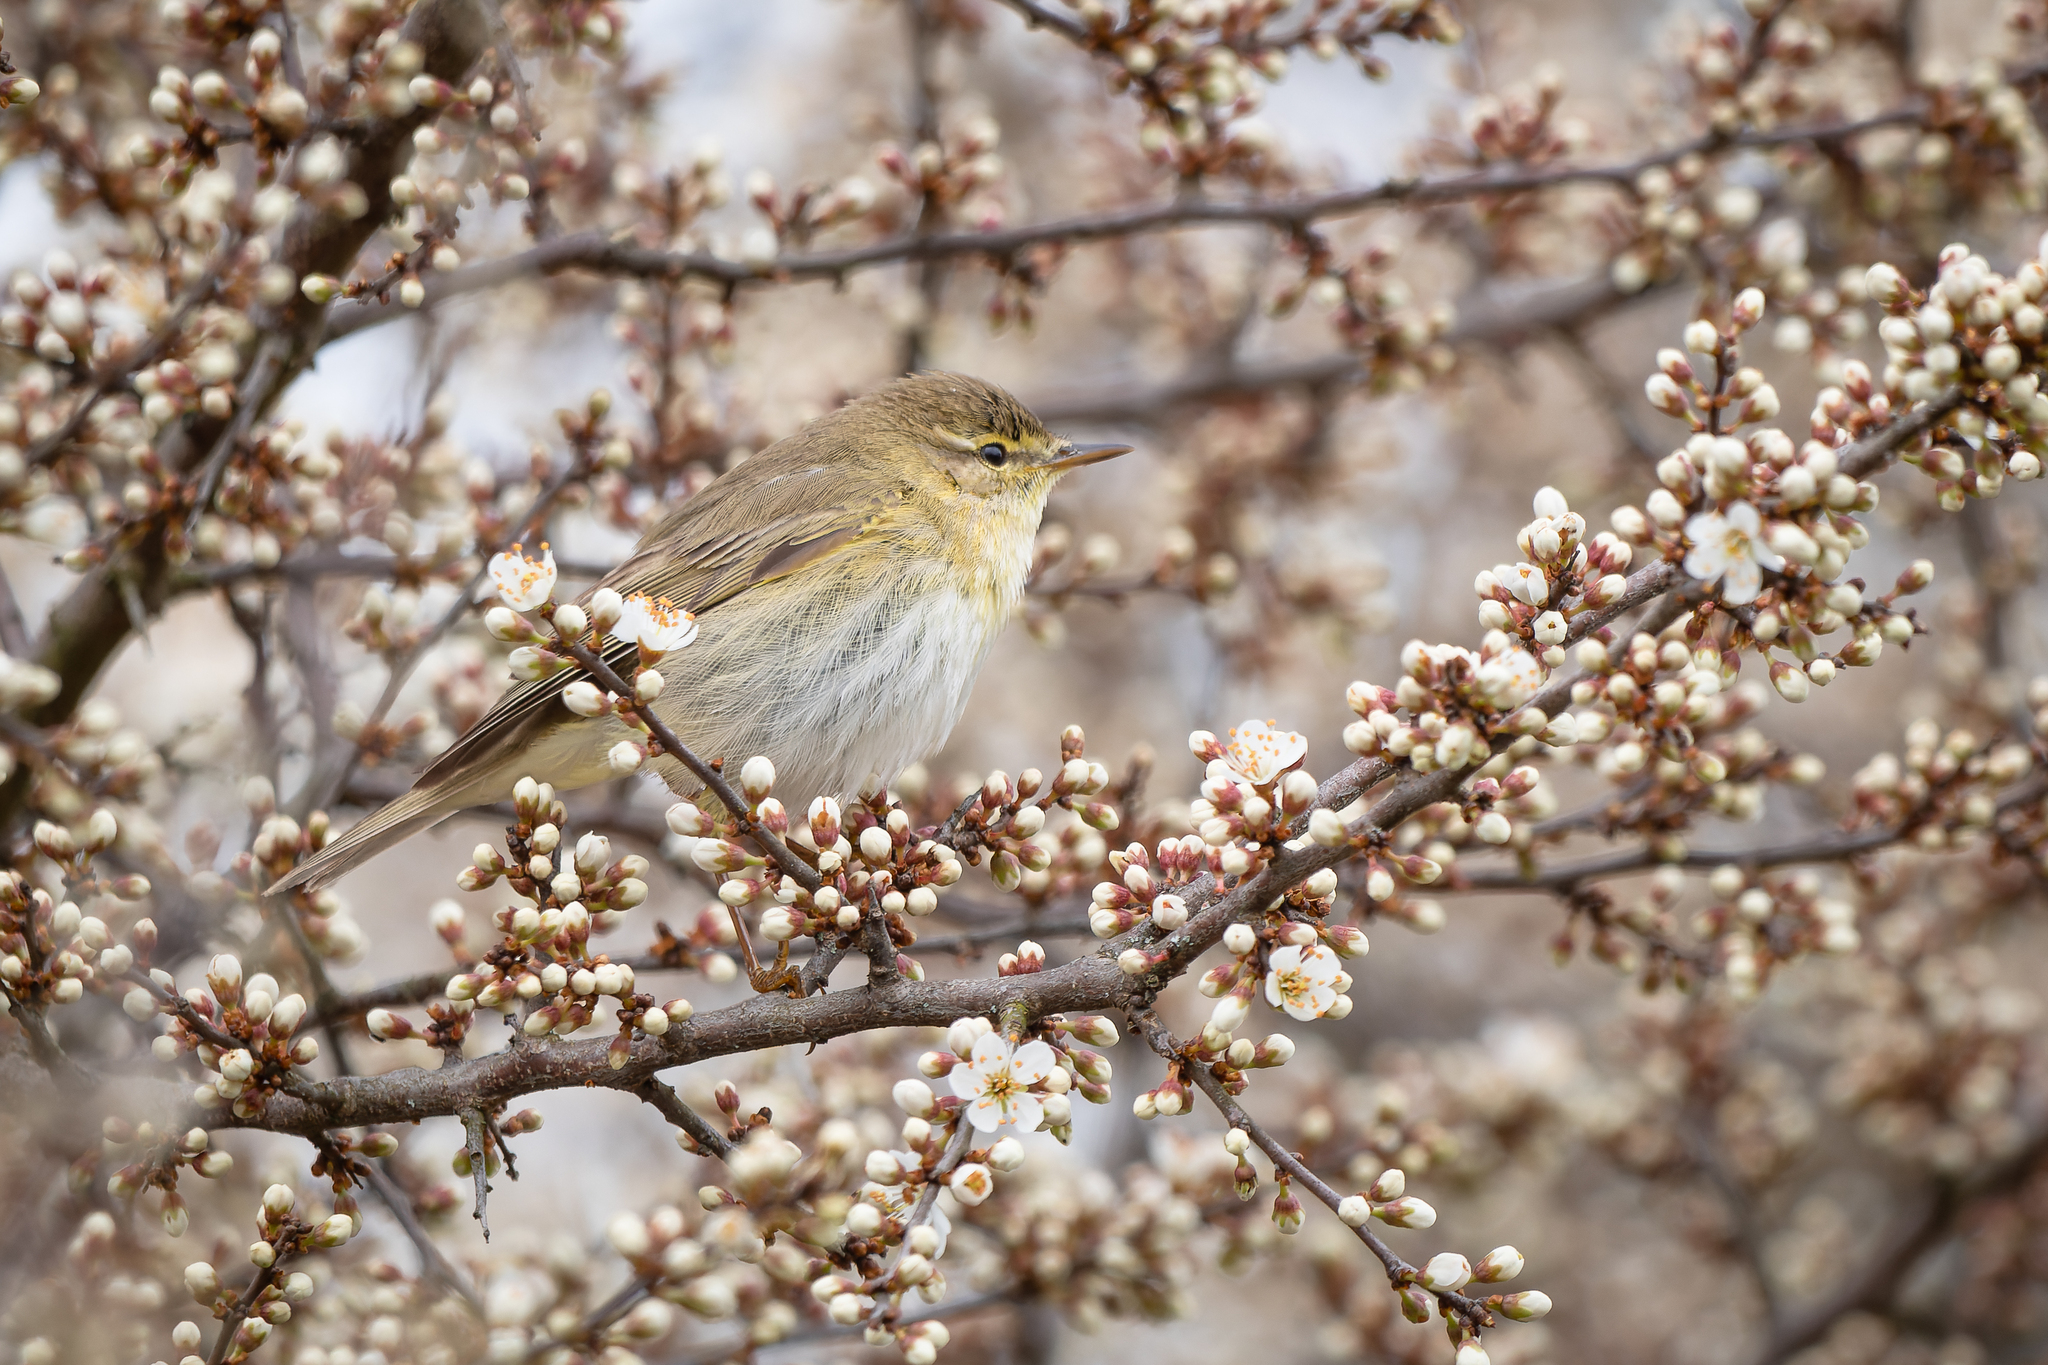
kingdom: Animalia
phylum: Chordata
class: Aves
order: Passeriformes
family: Phylloscopidae
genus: Phylloscopus
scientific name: Phylloscopus collybita
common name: Common chiffchaff
